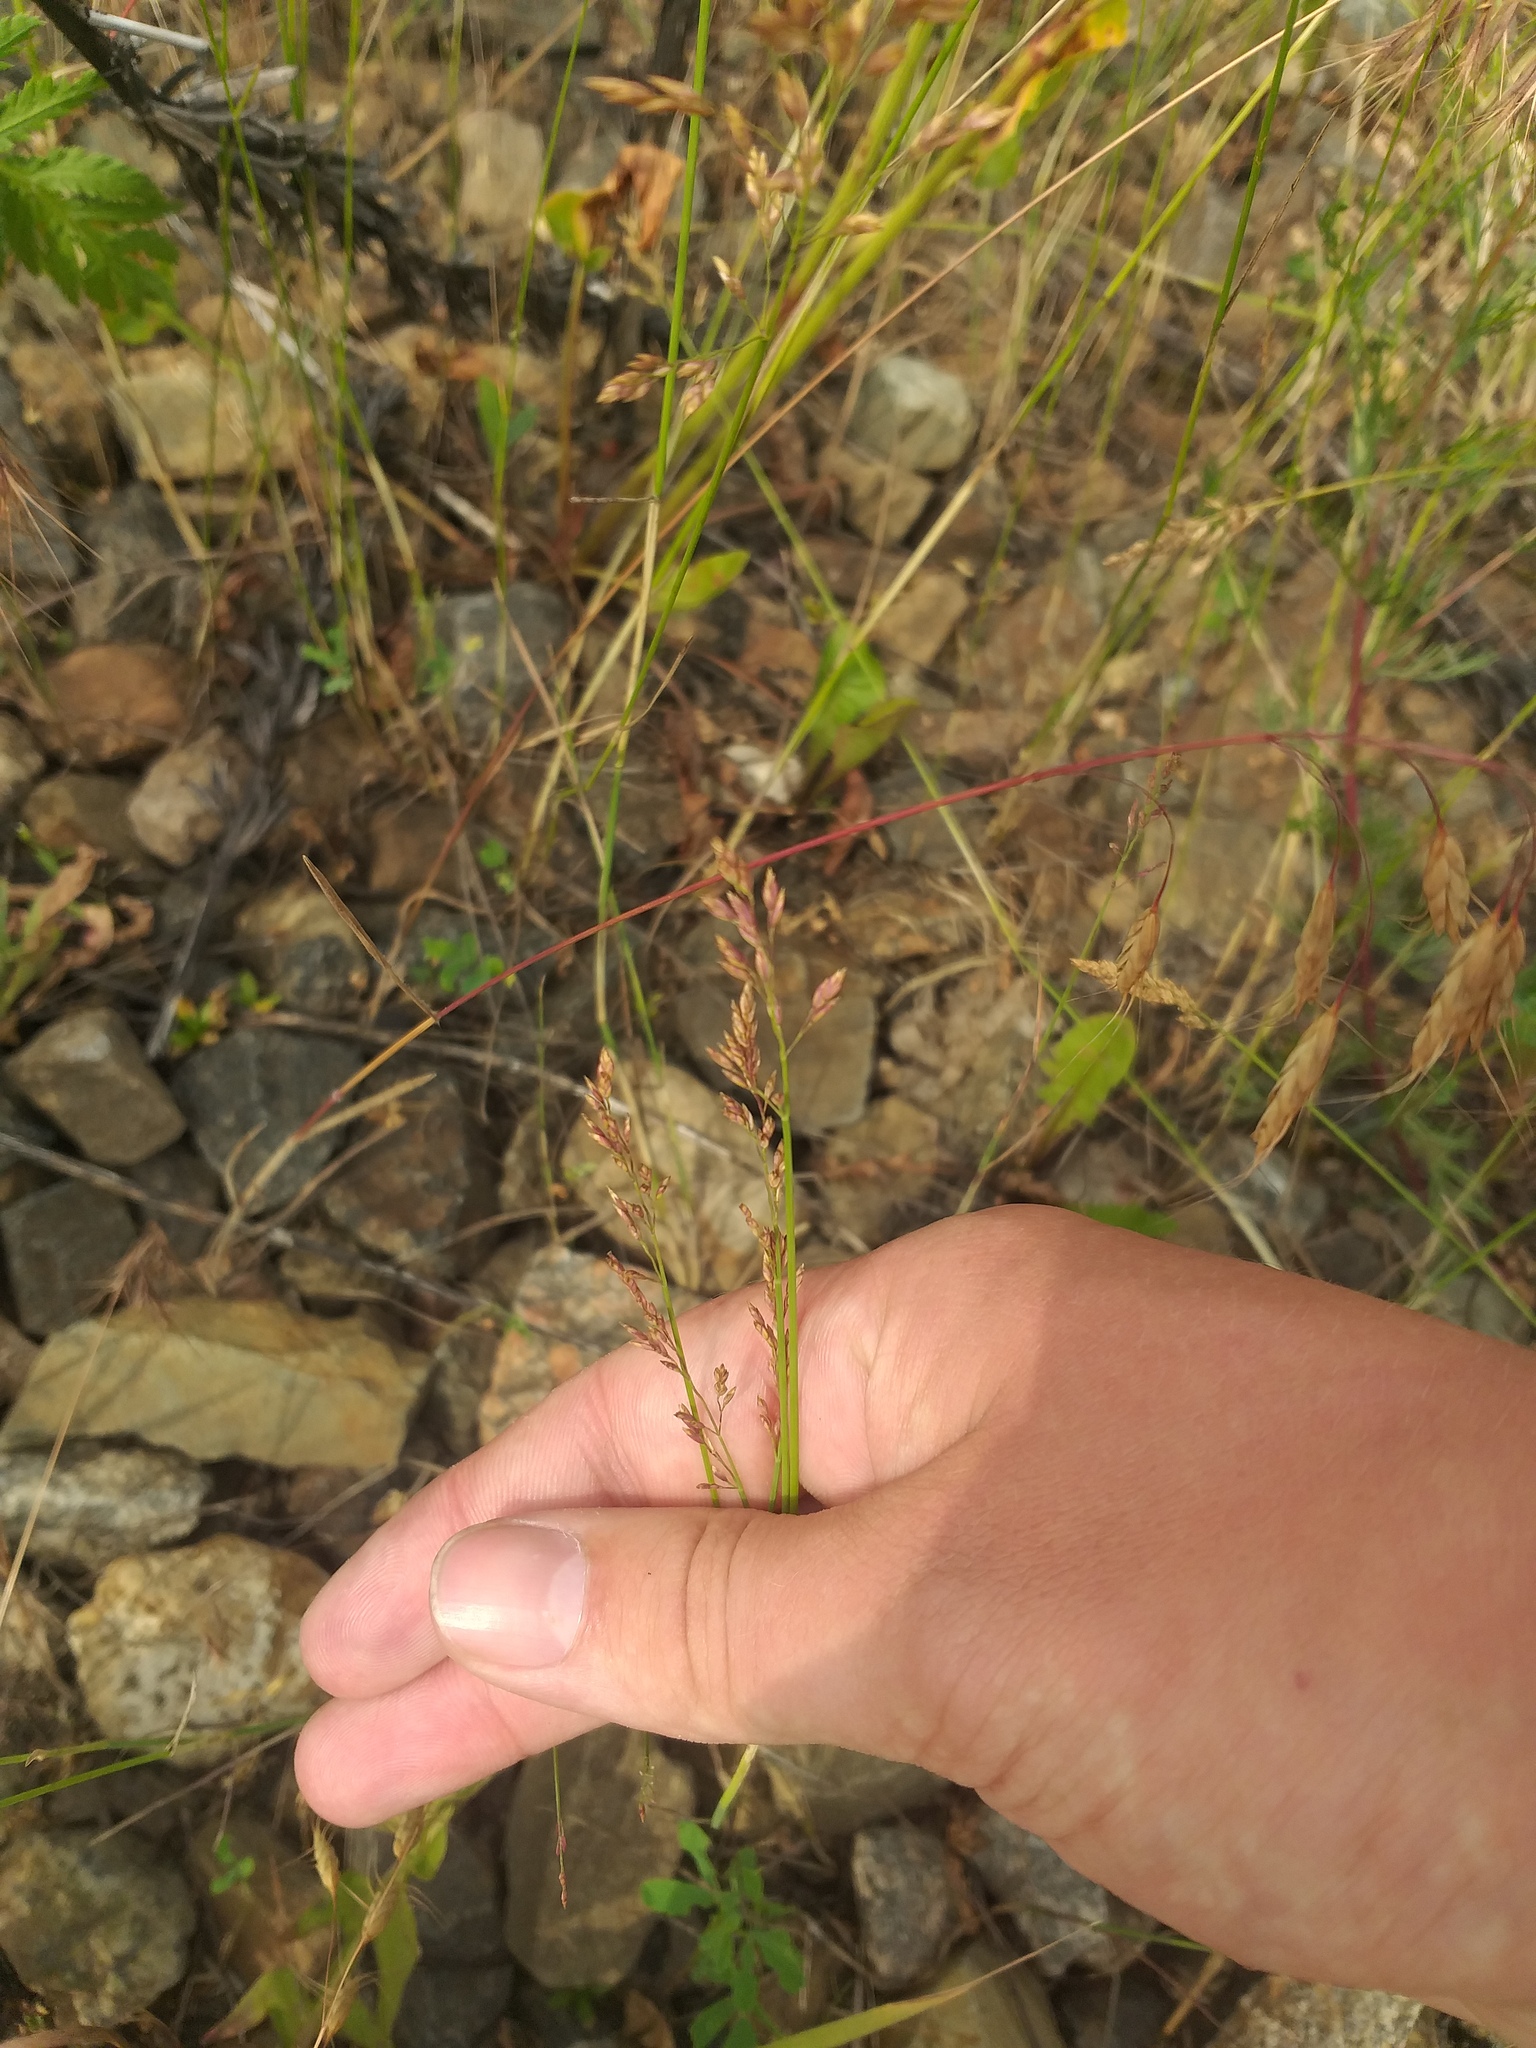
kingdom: Plantae
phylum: Tracheophyta
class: Liliopsida
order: Poales
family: Poaceae
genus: Poa
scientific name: Poa compressa
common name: Canada bluegrass
